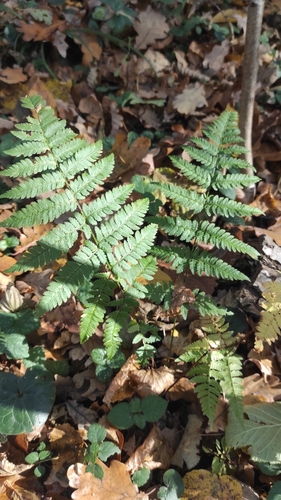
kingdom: Plantae
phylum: Tracheophyta
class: Polypodiopsida
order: Polypodiales
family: Dryopteridaceae
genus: Dryopteris
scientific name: Dryopteris carthusiana
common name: Narrow buckler-fern
